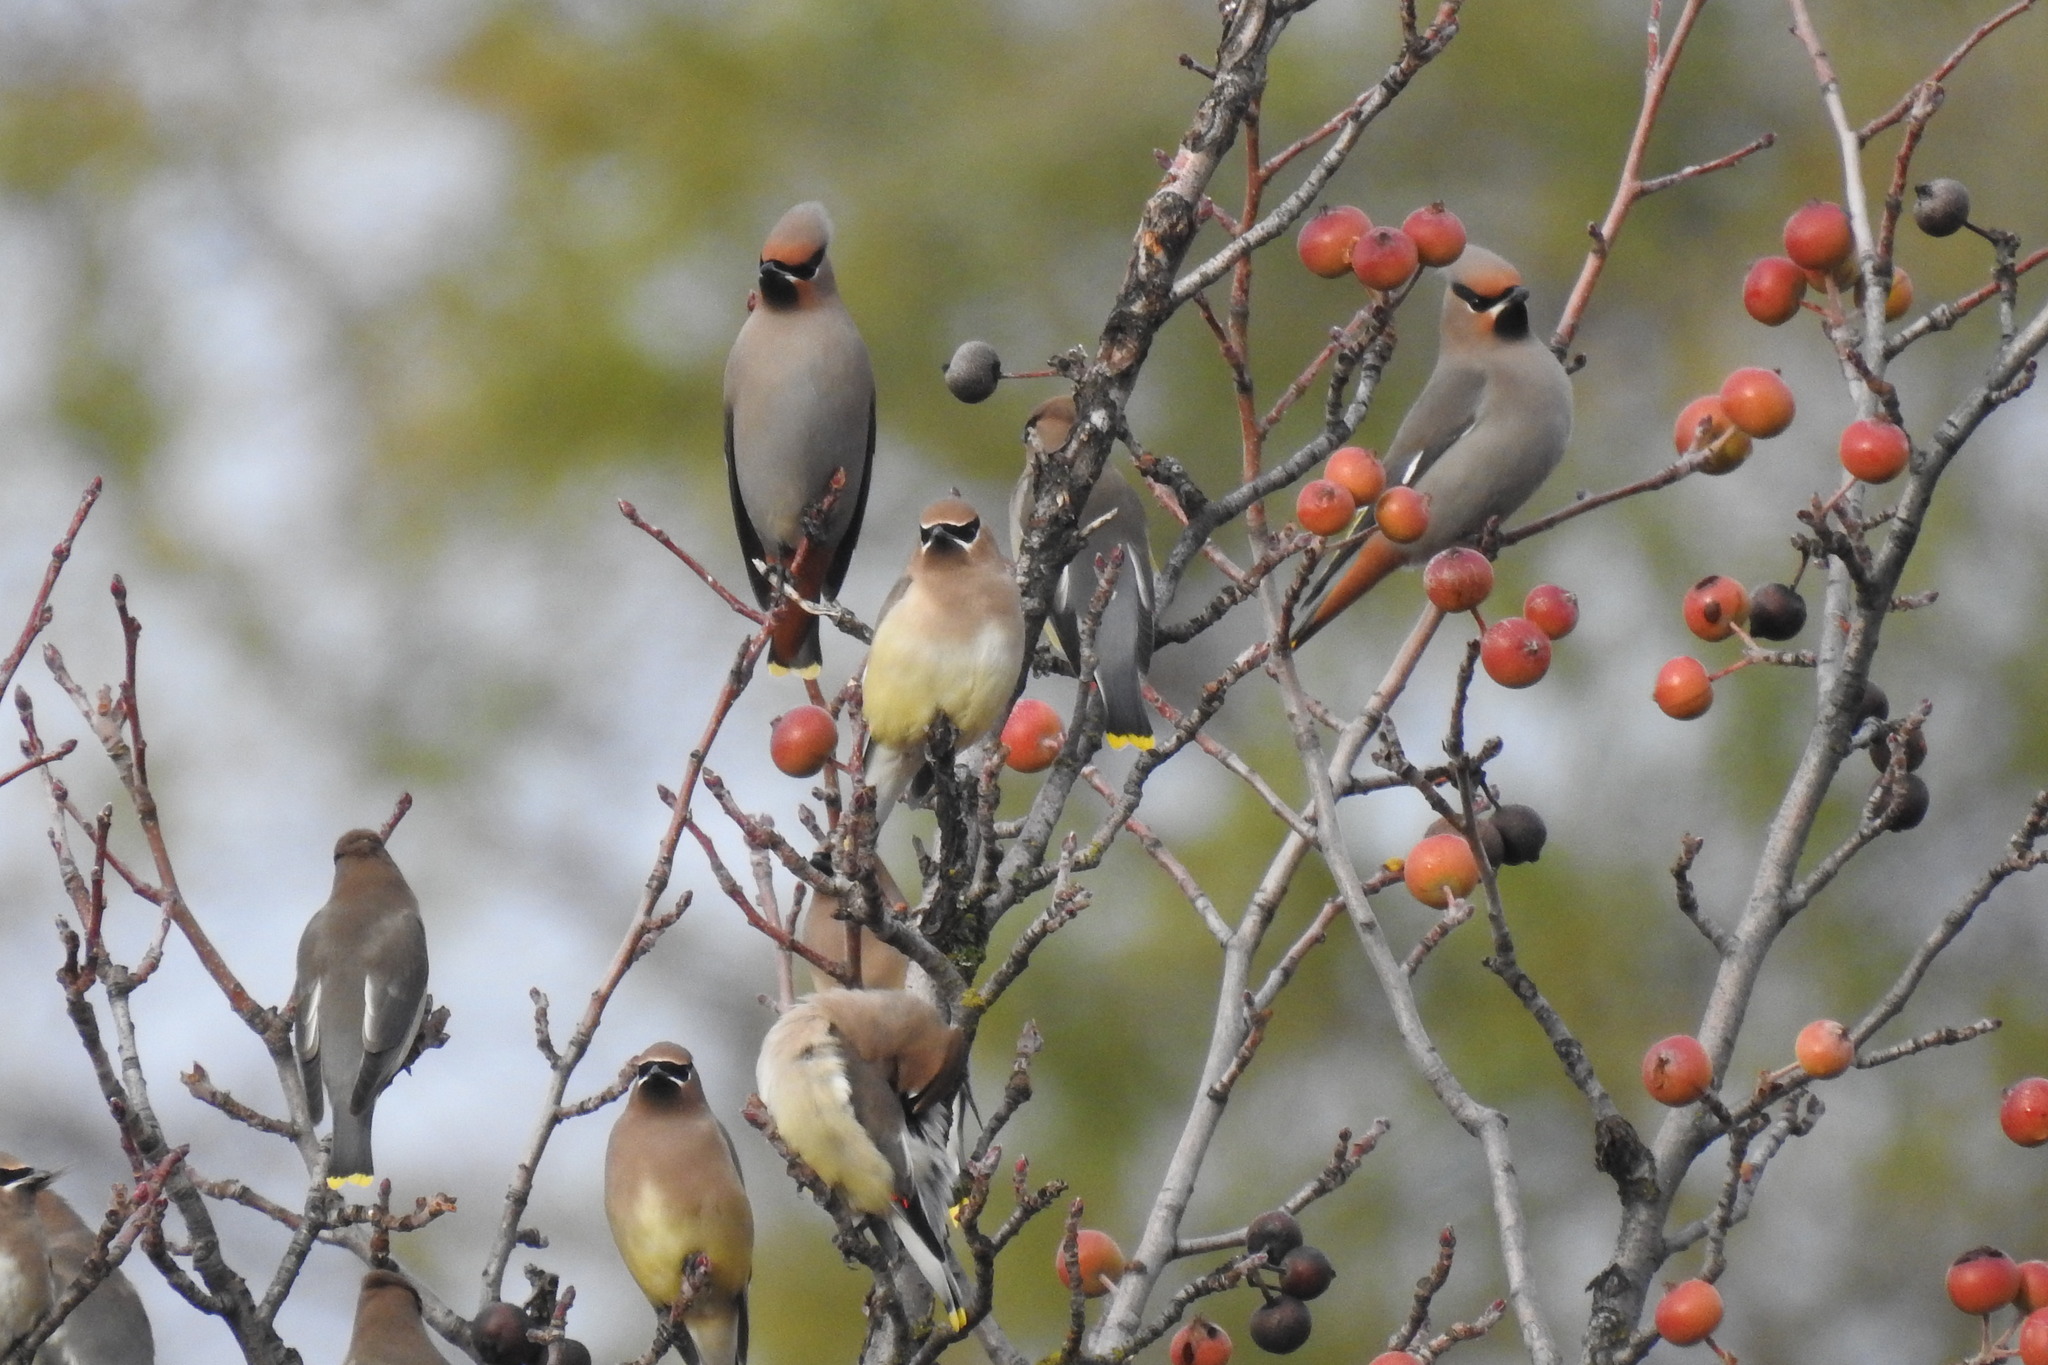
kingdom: Animalia
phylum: Chordata
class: Aves
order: Passeriformes
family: Bombycillidae
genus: Bombycilla
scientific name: Bombycilla garrulus
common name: Bohemian waxwing
